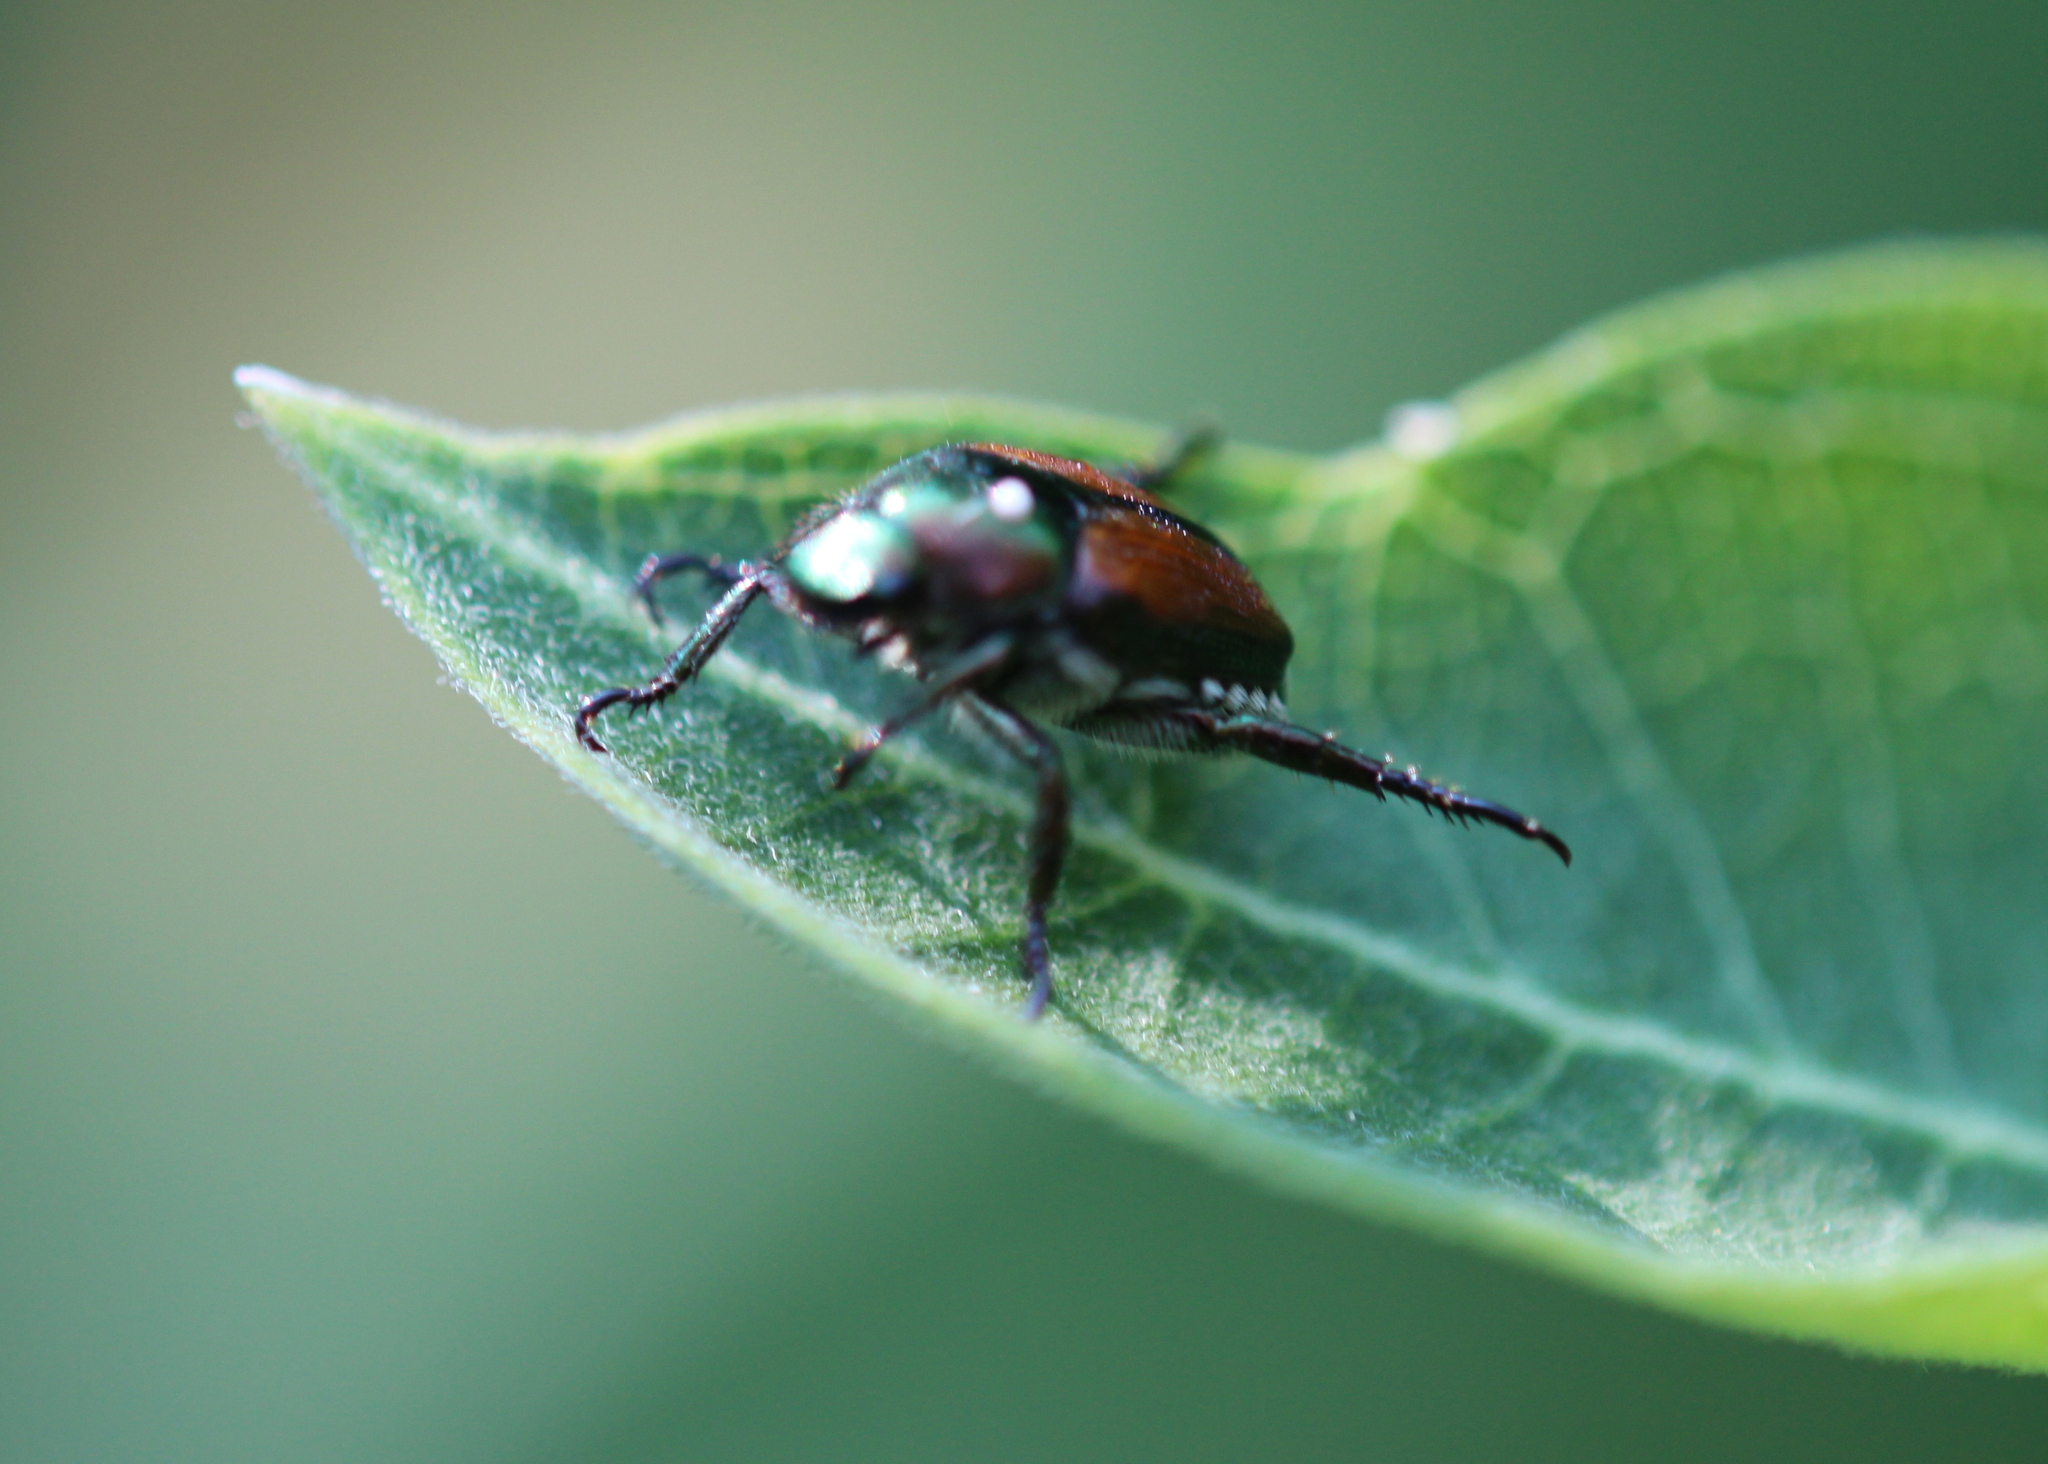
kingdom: Animalia
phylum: Arthropoda
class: Insecta
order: Coleoptera
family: Scarabaeidae
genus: Popillia
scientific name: Popillia japonica
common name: Japanese beetle
